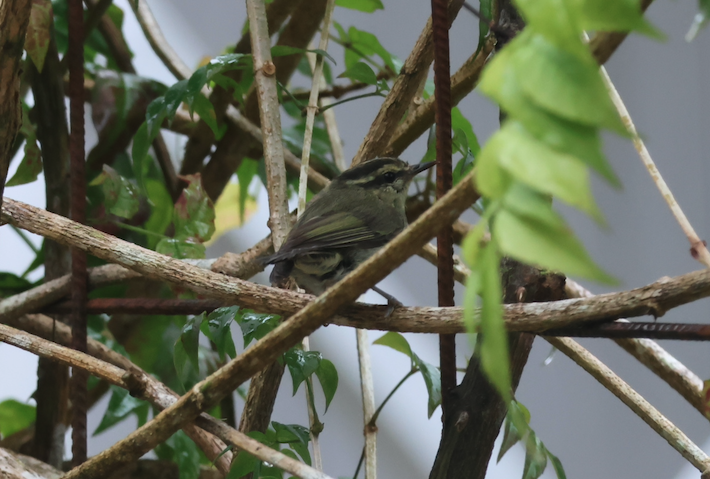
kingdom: Animalia
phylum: Chordata
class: Aves
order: Passeriformes
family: Phylloscopidae
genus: Phylloscopus
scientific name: Phylloscopus trivirgatus
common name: Mountain leaf warbler
